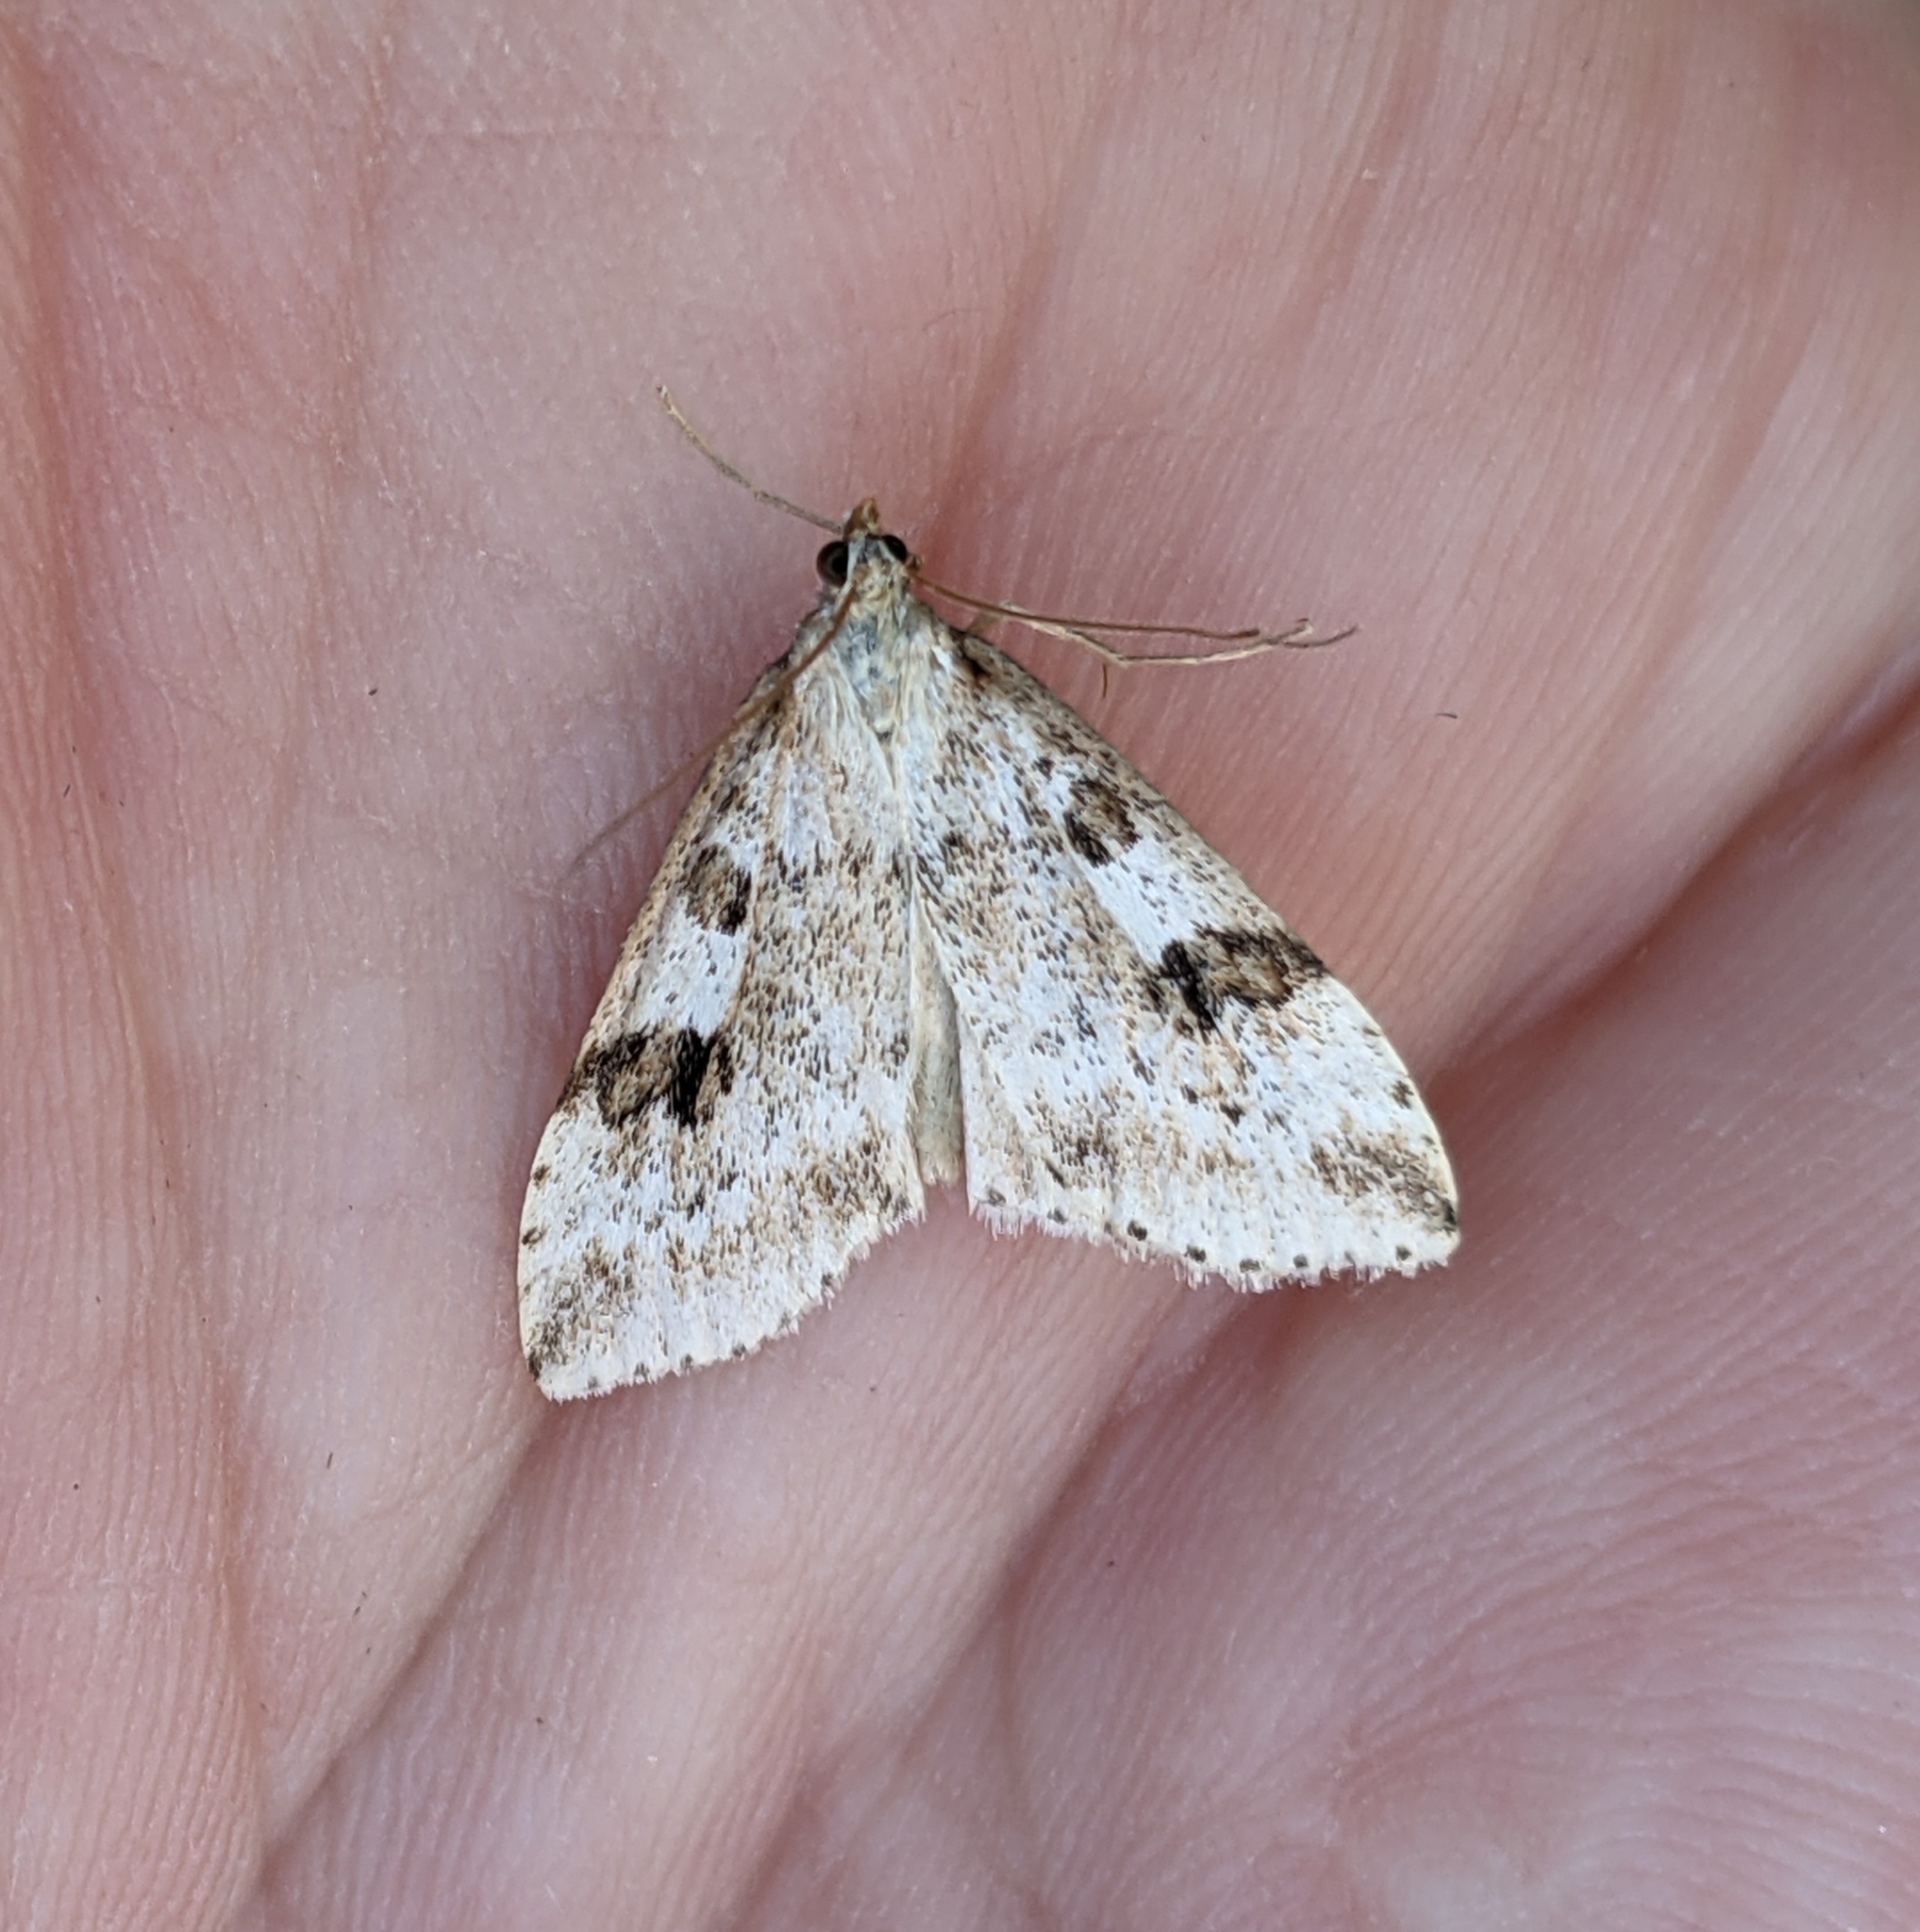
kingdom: Animalia
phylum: Arthropoda
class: Insecta
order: Lepidoptera
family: Crambidae
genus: Udea
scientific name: Udea washingtonalis
